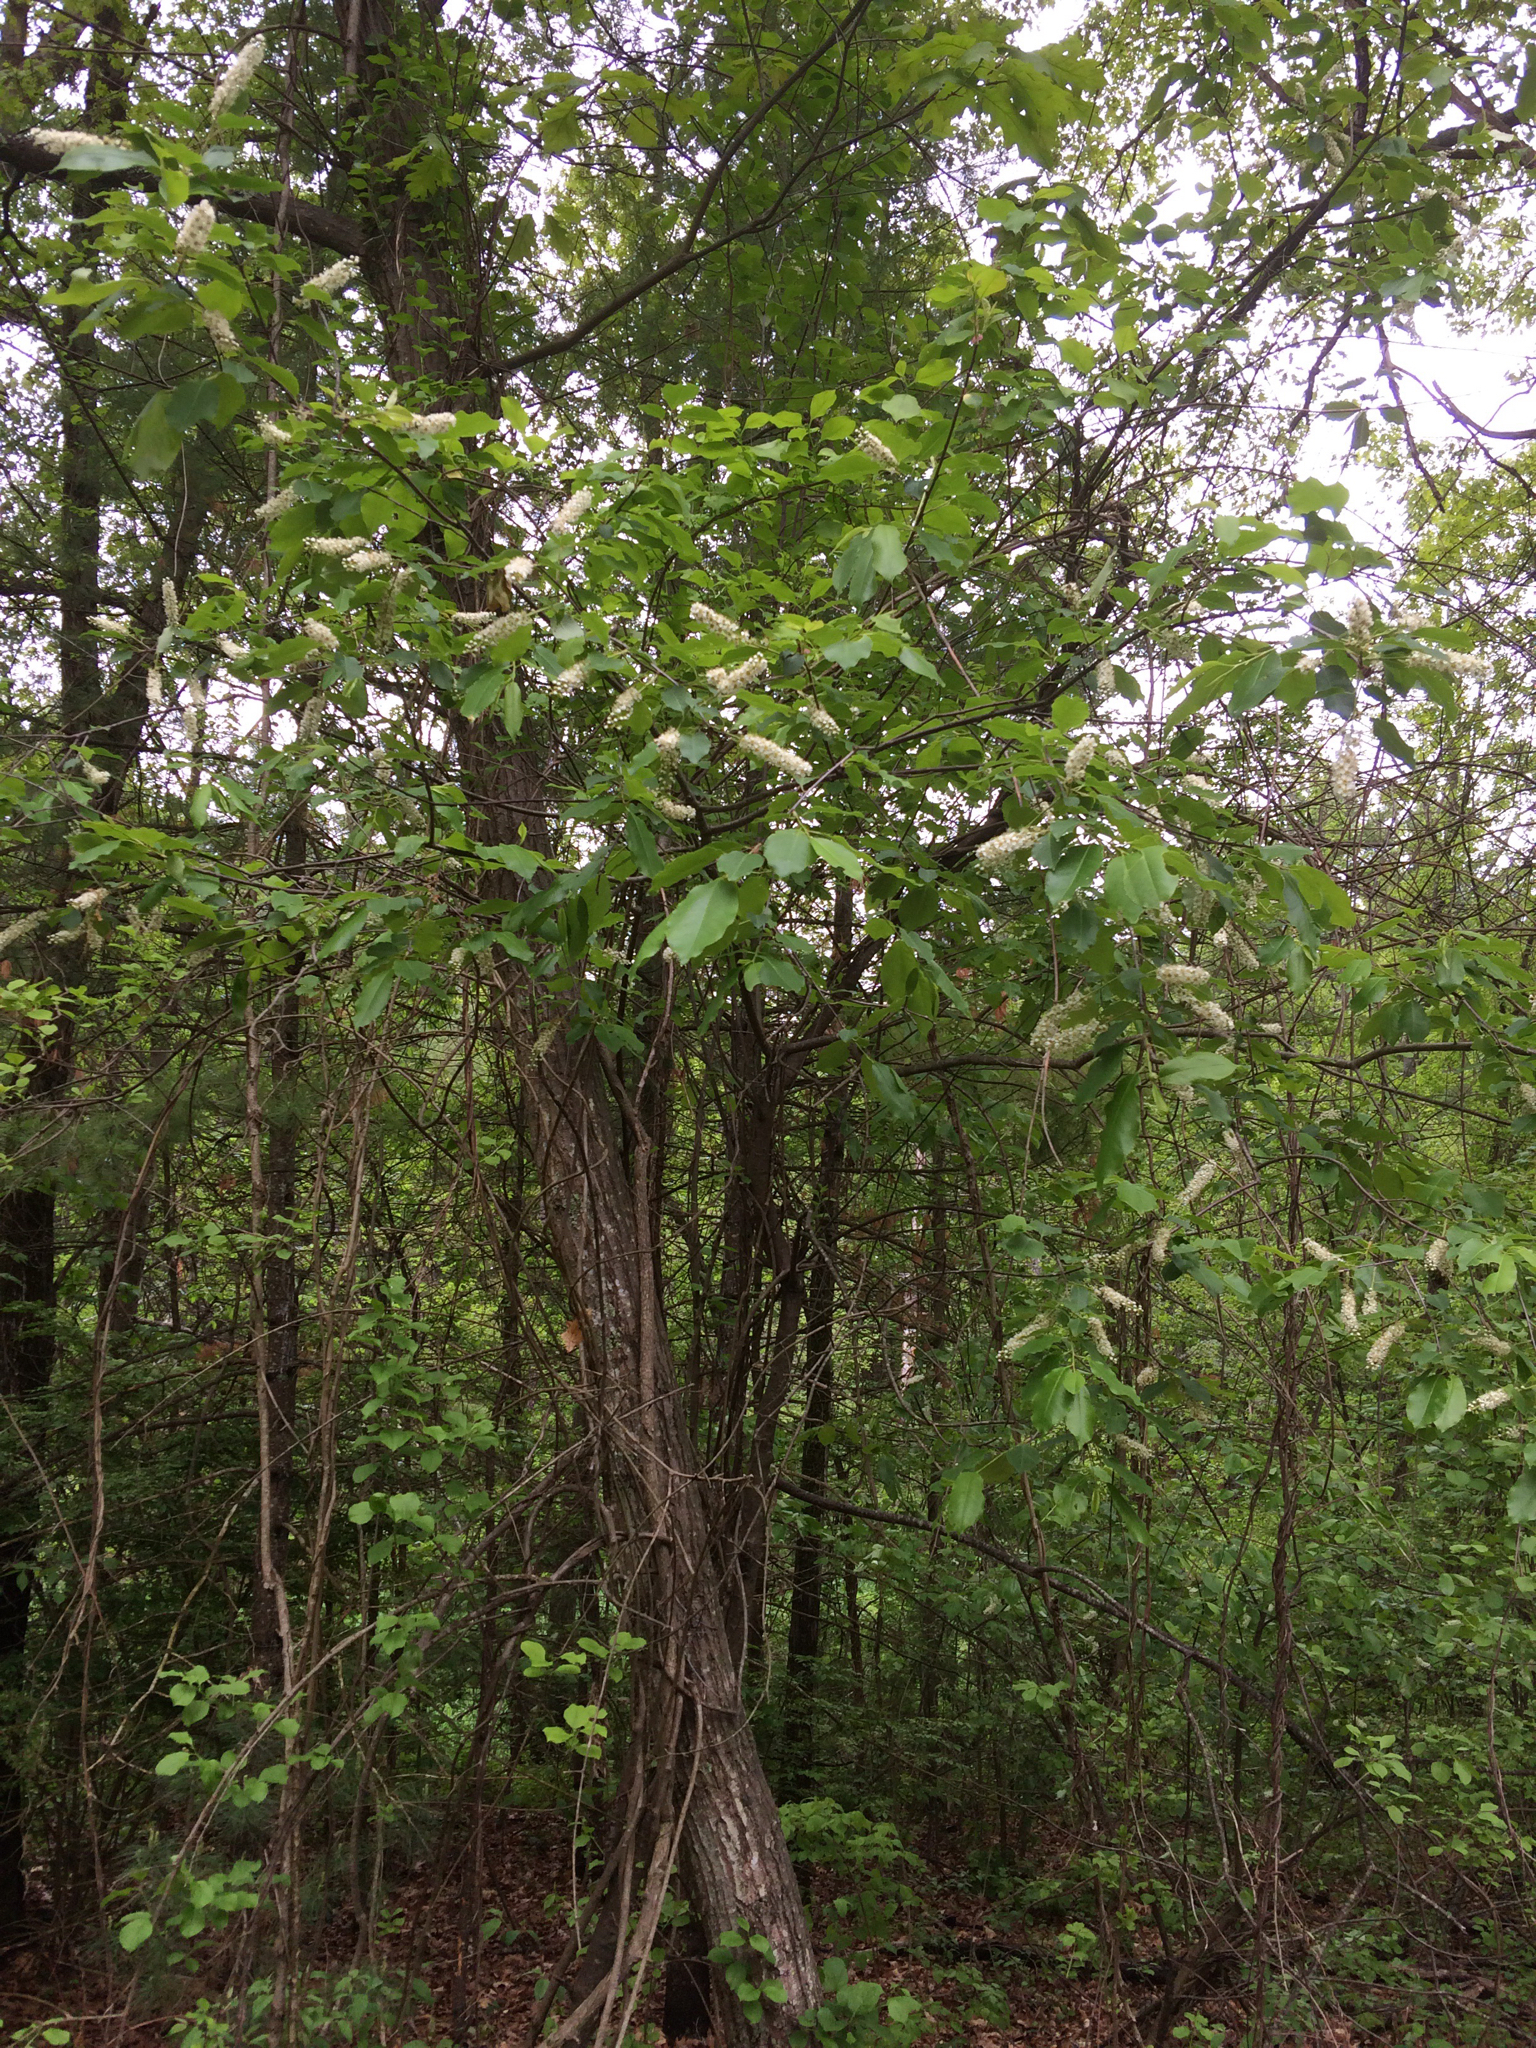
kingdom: Plantae
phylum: Tracheophyta
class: Magnoliopsida
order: Rosales
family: Rosaceae
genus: Prunus
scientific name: Prunus virginiana
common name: Chokecherry
